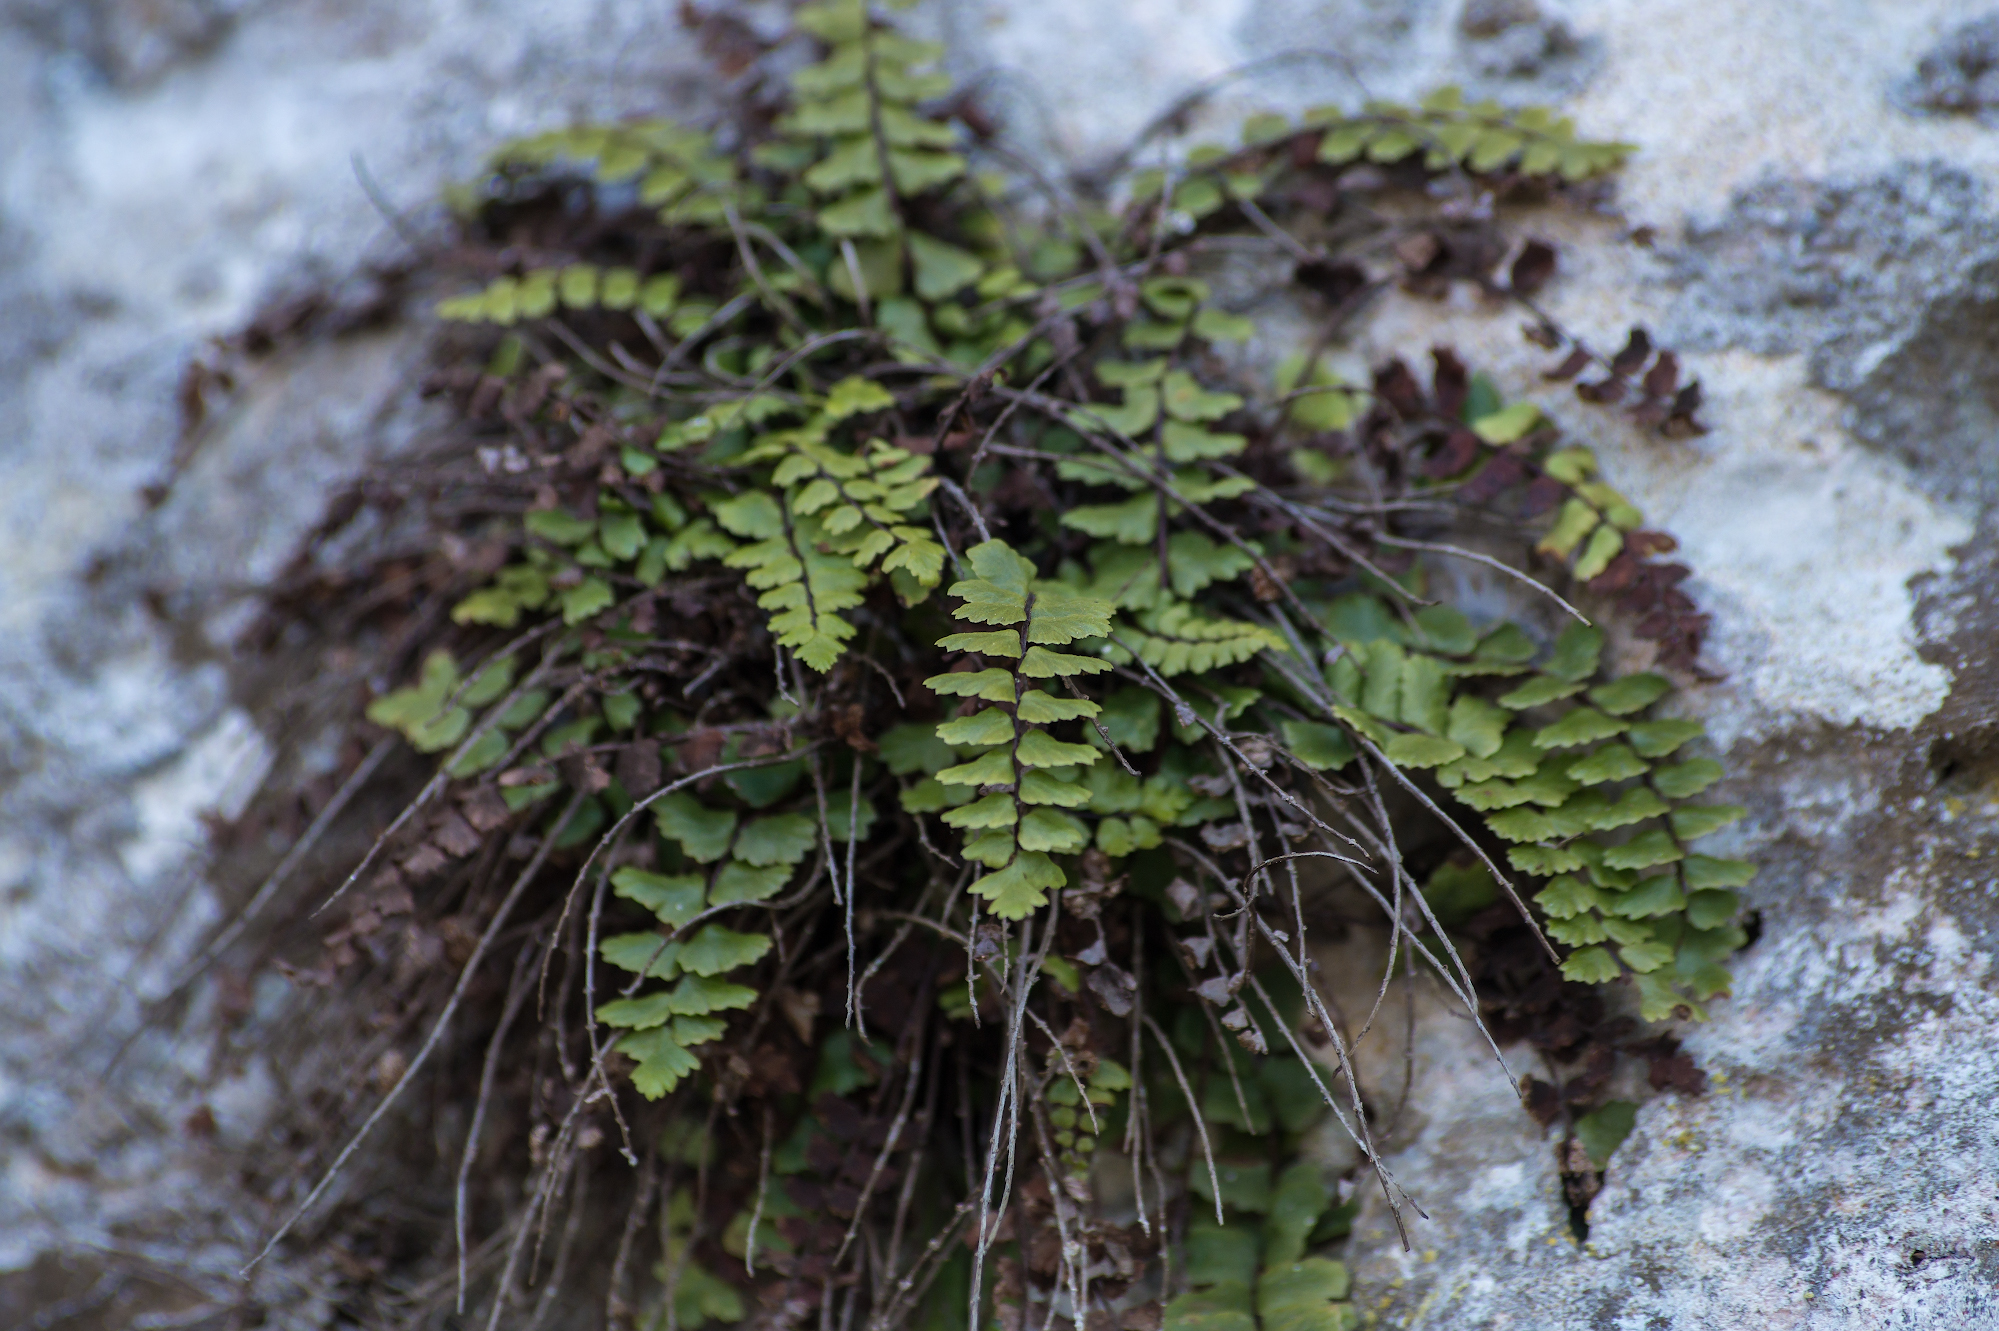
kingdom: Plantae
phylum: Tracheophyta
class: Polypodiopsida
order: Polypodiales
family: Aspleniaceae
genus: Asplenium
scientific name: Asplenium trichomanes
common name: Maidenhair spleenwort
